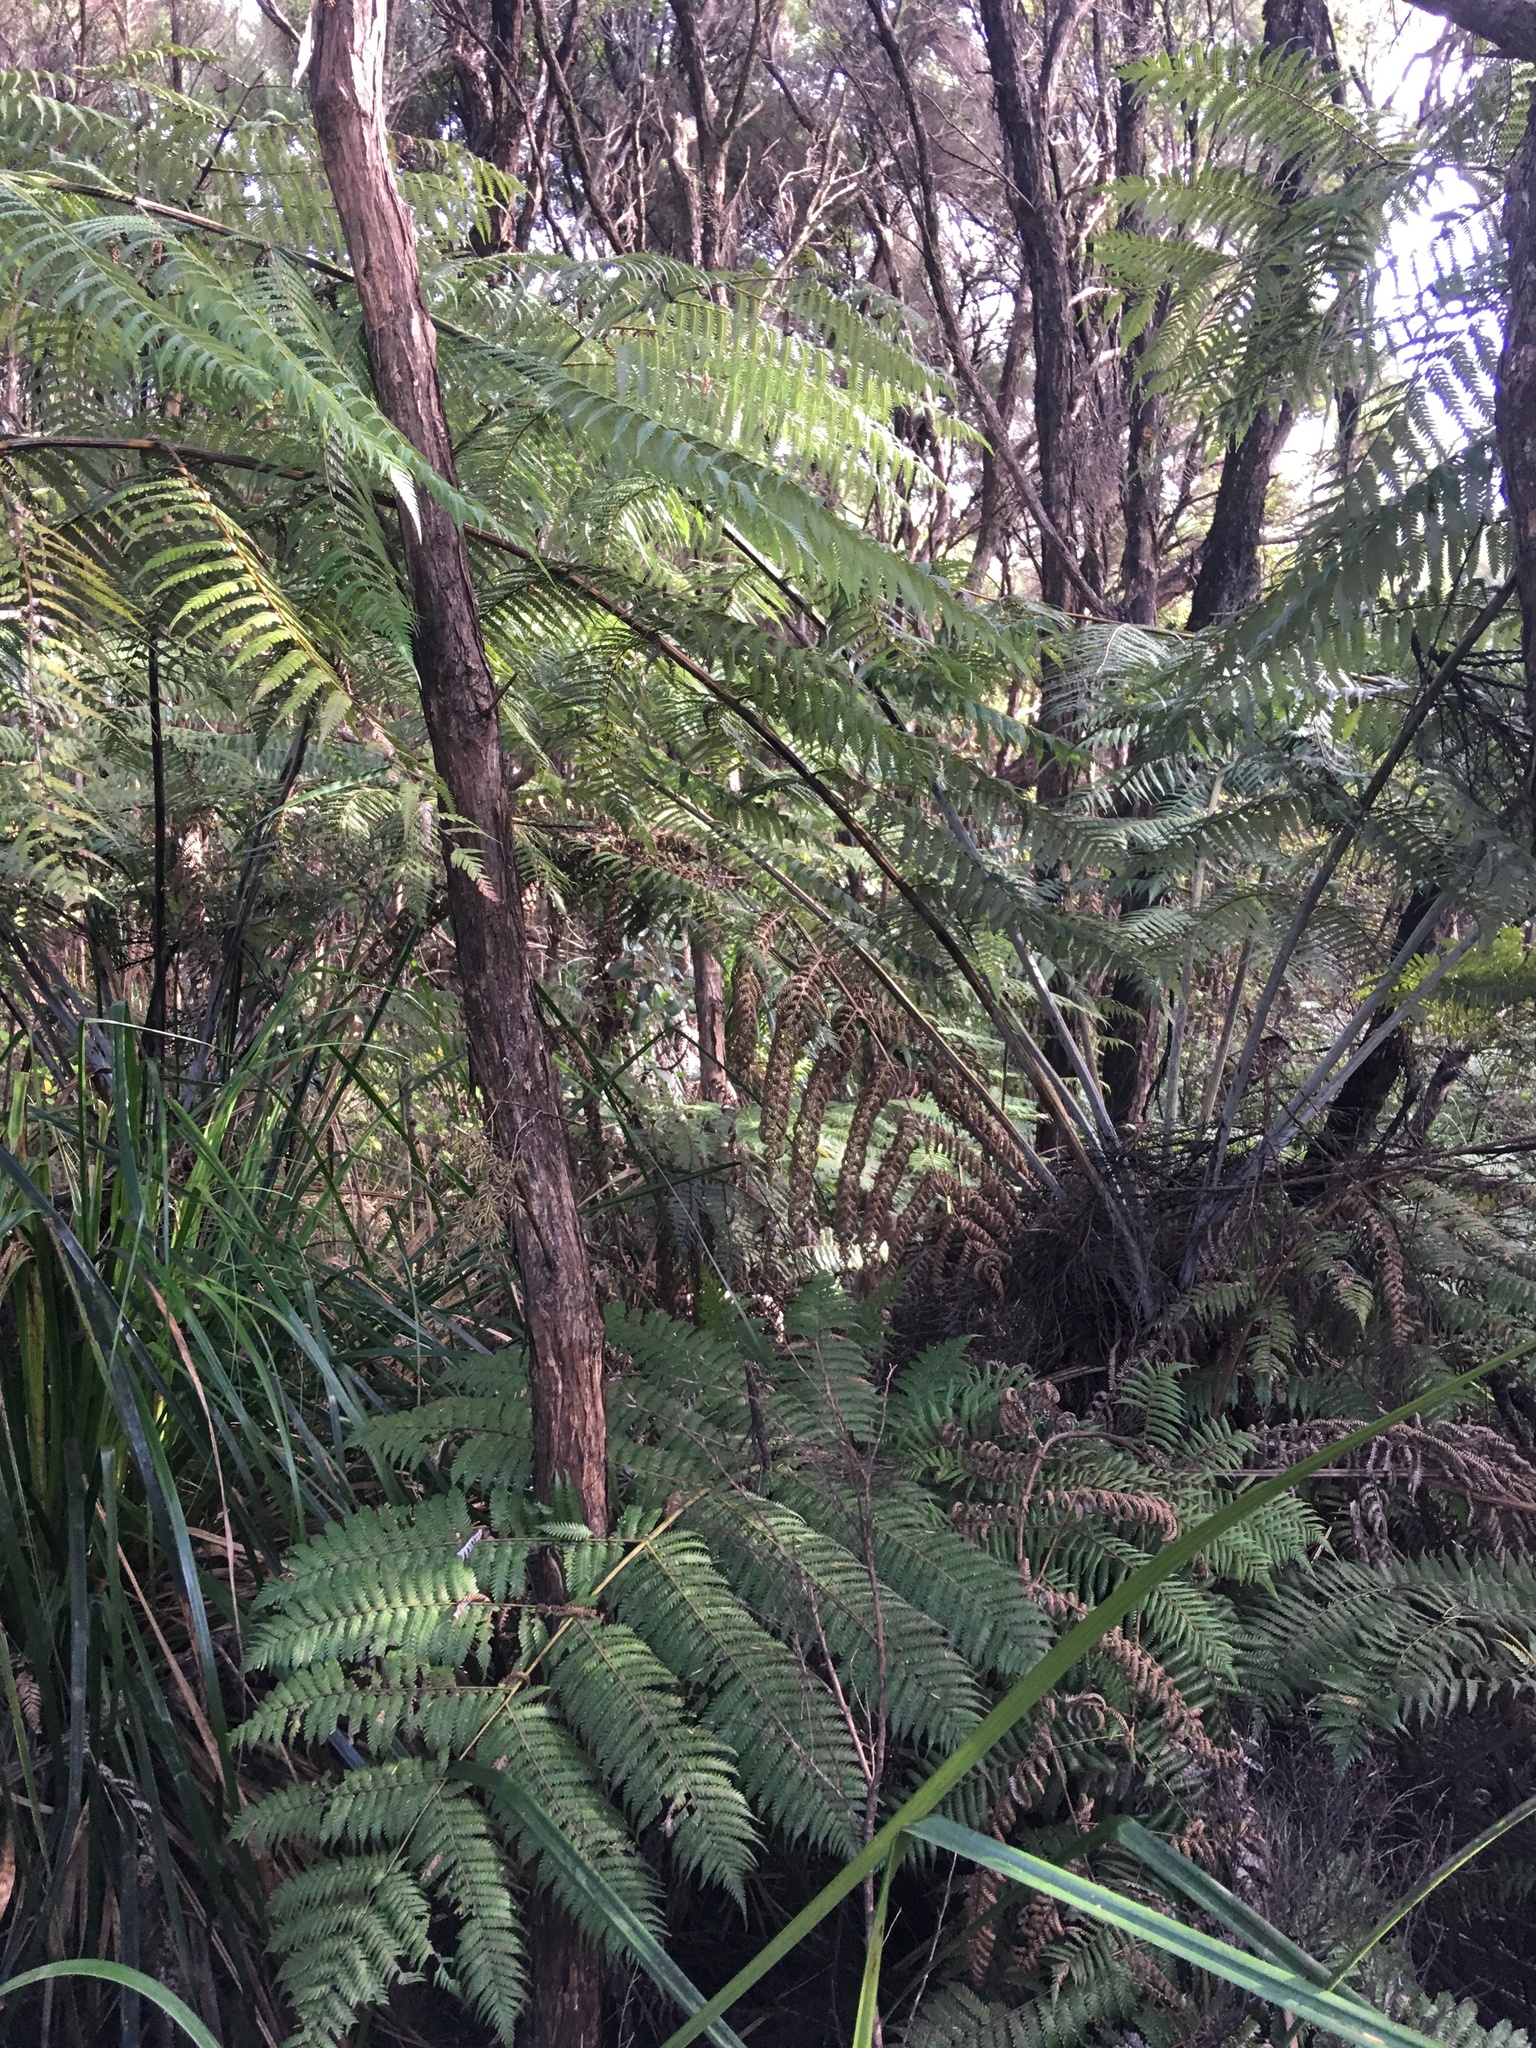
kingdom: Plantae
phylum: Tracheophyta
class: Polypodiopsida
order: Cyatheales
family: Cyatheaceae
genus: Alsophila
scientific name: Alsophila dealbata
